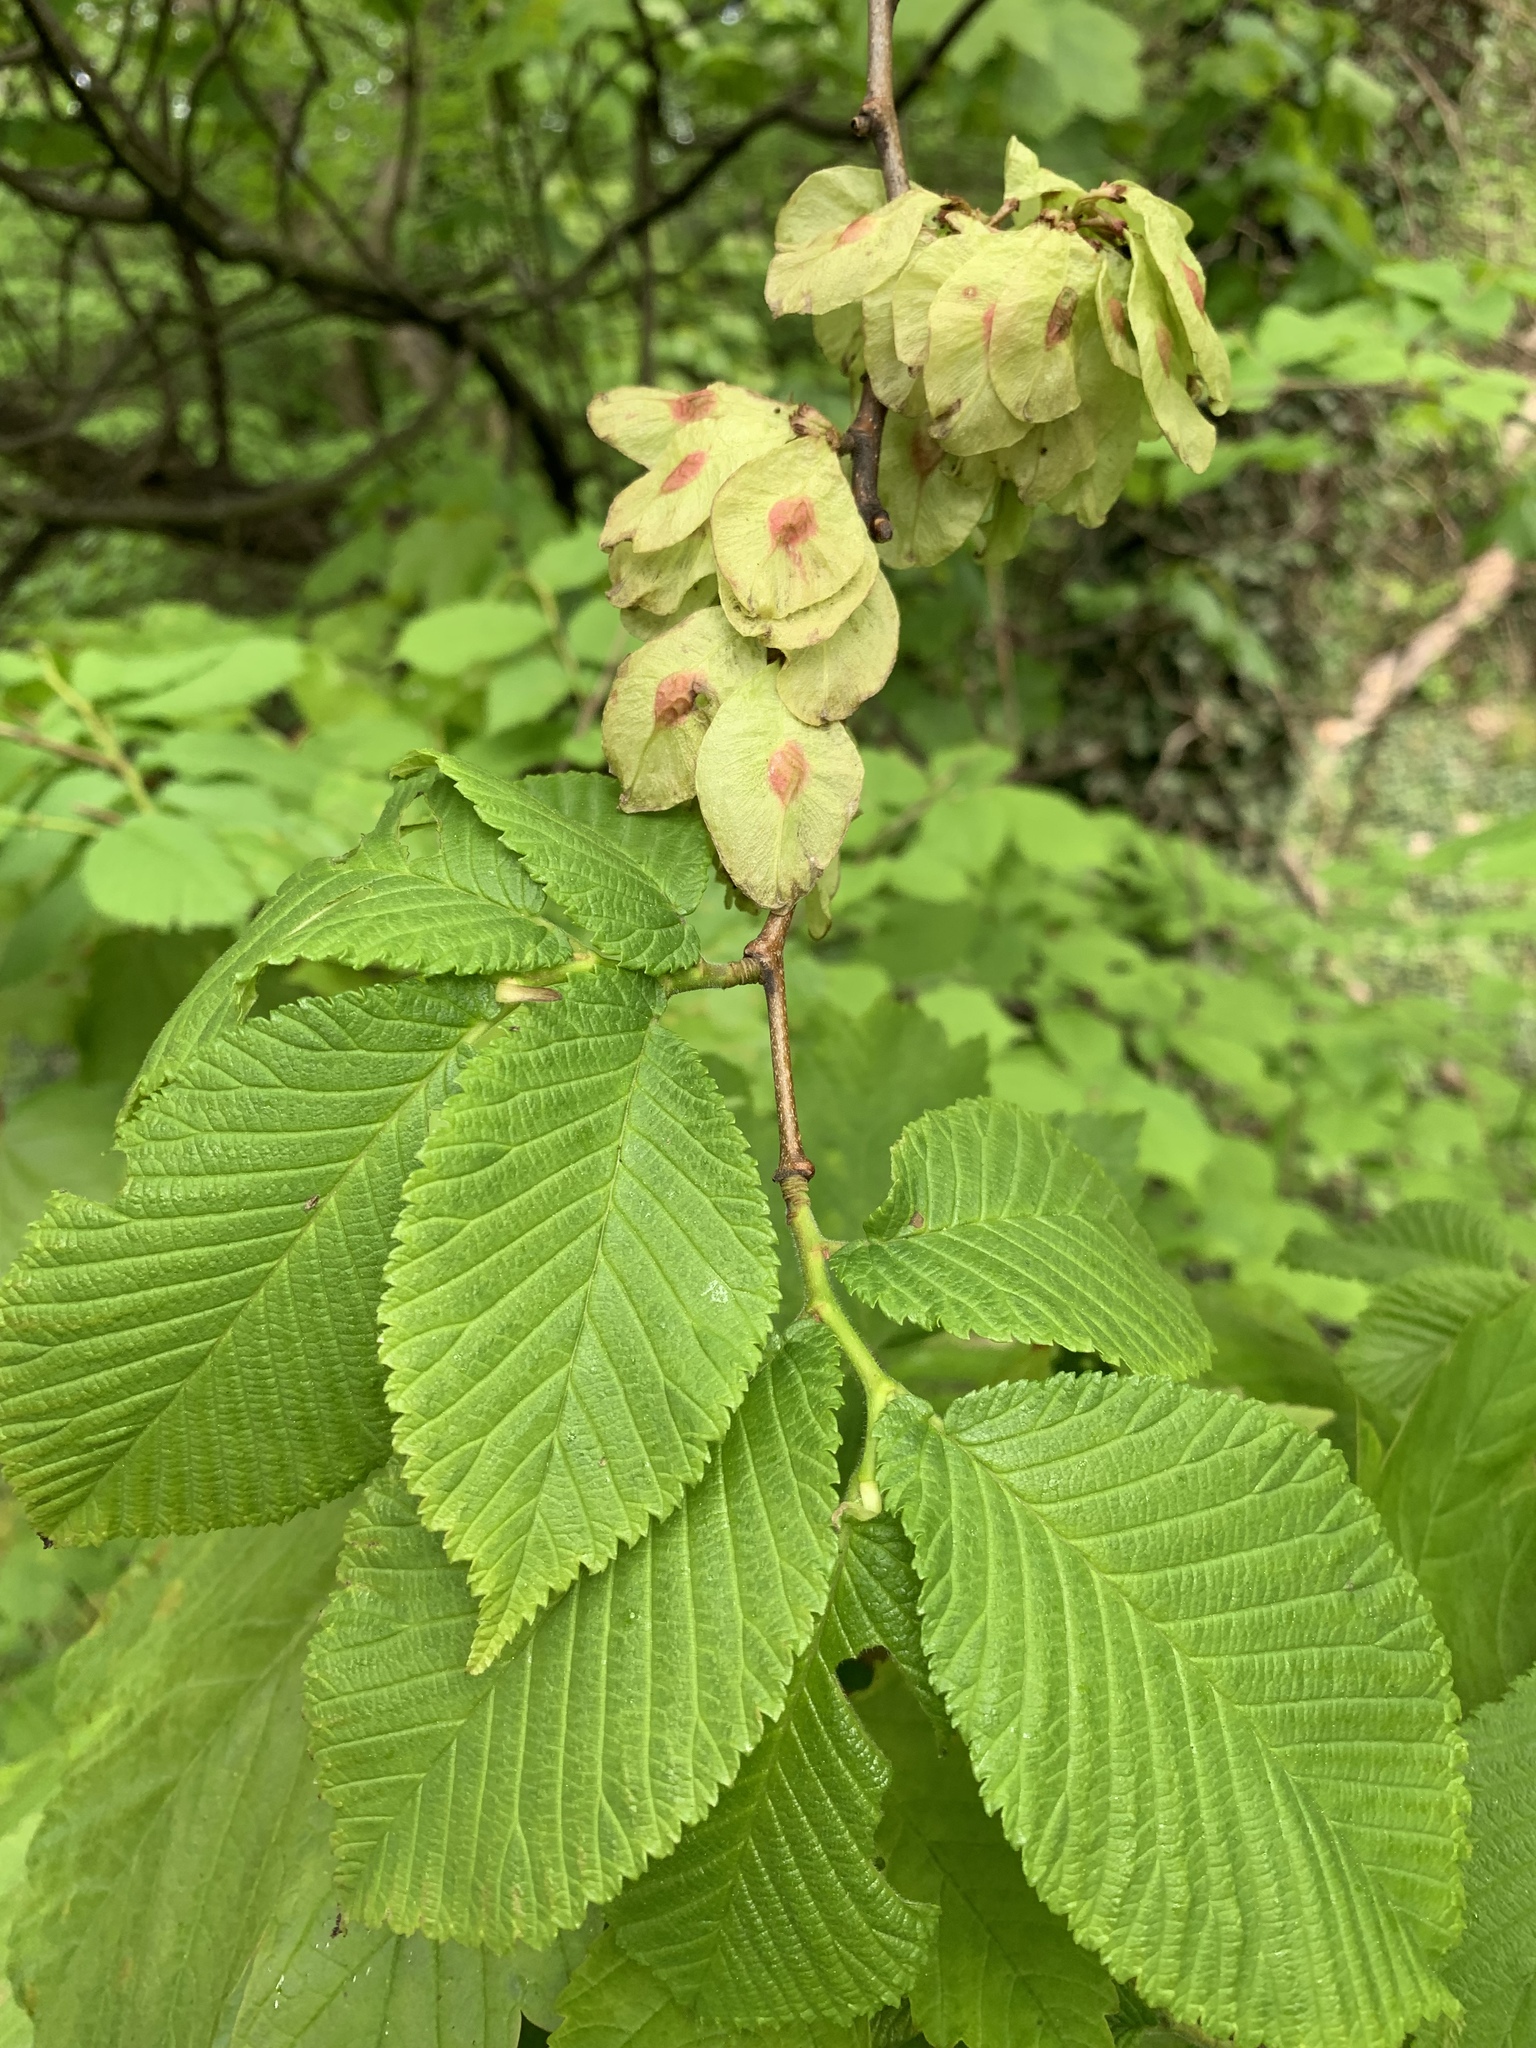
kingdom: Plantae
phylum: Tracheophyta
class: Magnoliopsida
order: Rosales
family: Ulmaceae
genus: Ulmus
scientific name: Ulmus glabra
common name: Wych elm
